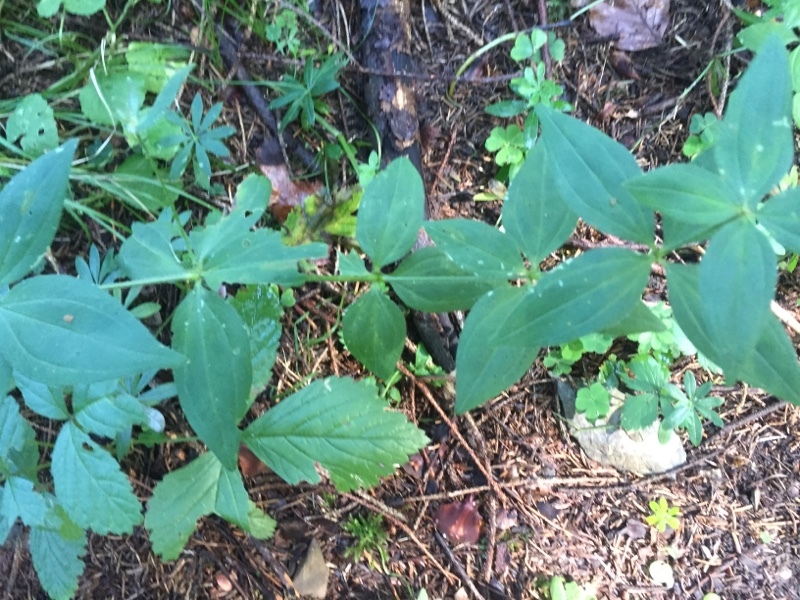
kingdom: Plantae
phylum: Tracheophyta
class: Magnoliopsida
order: Gentianales
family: Rubiaceae
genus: Asperula
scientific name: Asperula taurina
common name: Pink woodruff
